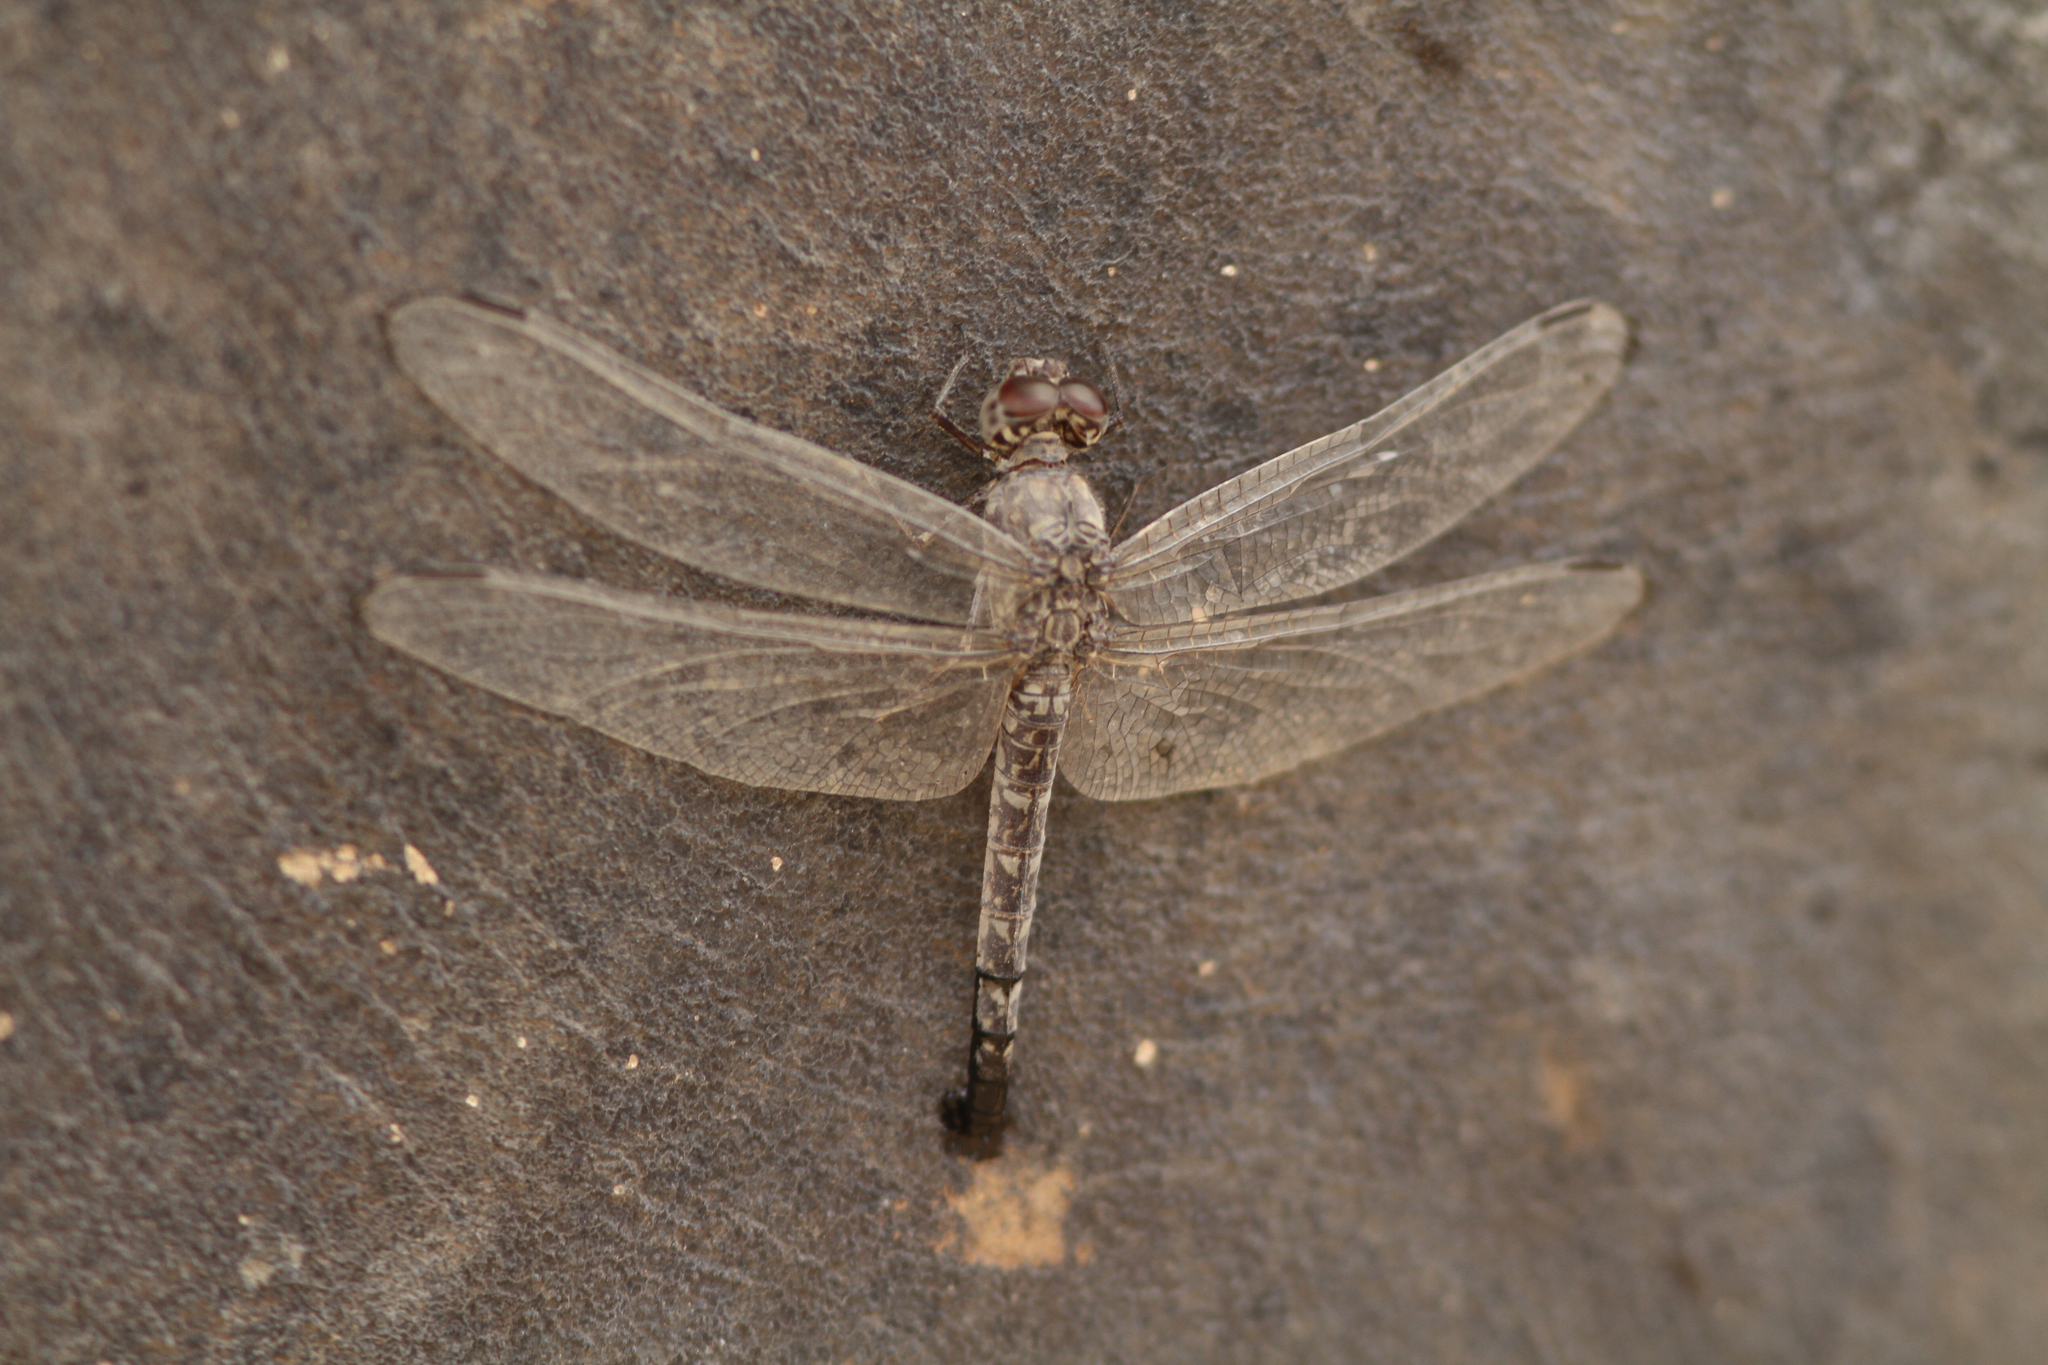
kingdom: Animalia
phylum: Arthropoda
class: Insecta
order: Odonata
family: Libellulidae
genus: Bradinopyga
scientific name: Bradinopyga strachani
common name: Red rock-dweller
